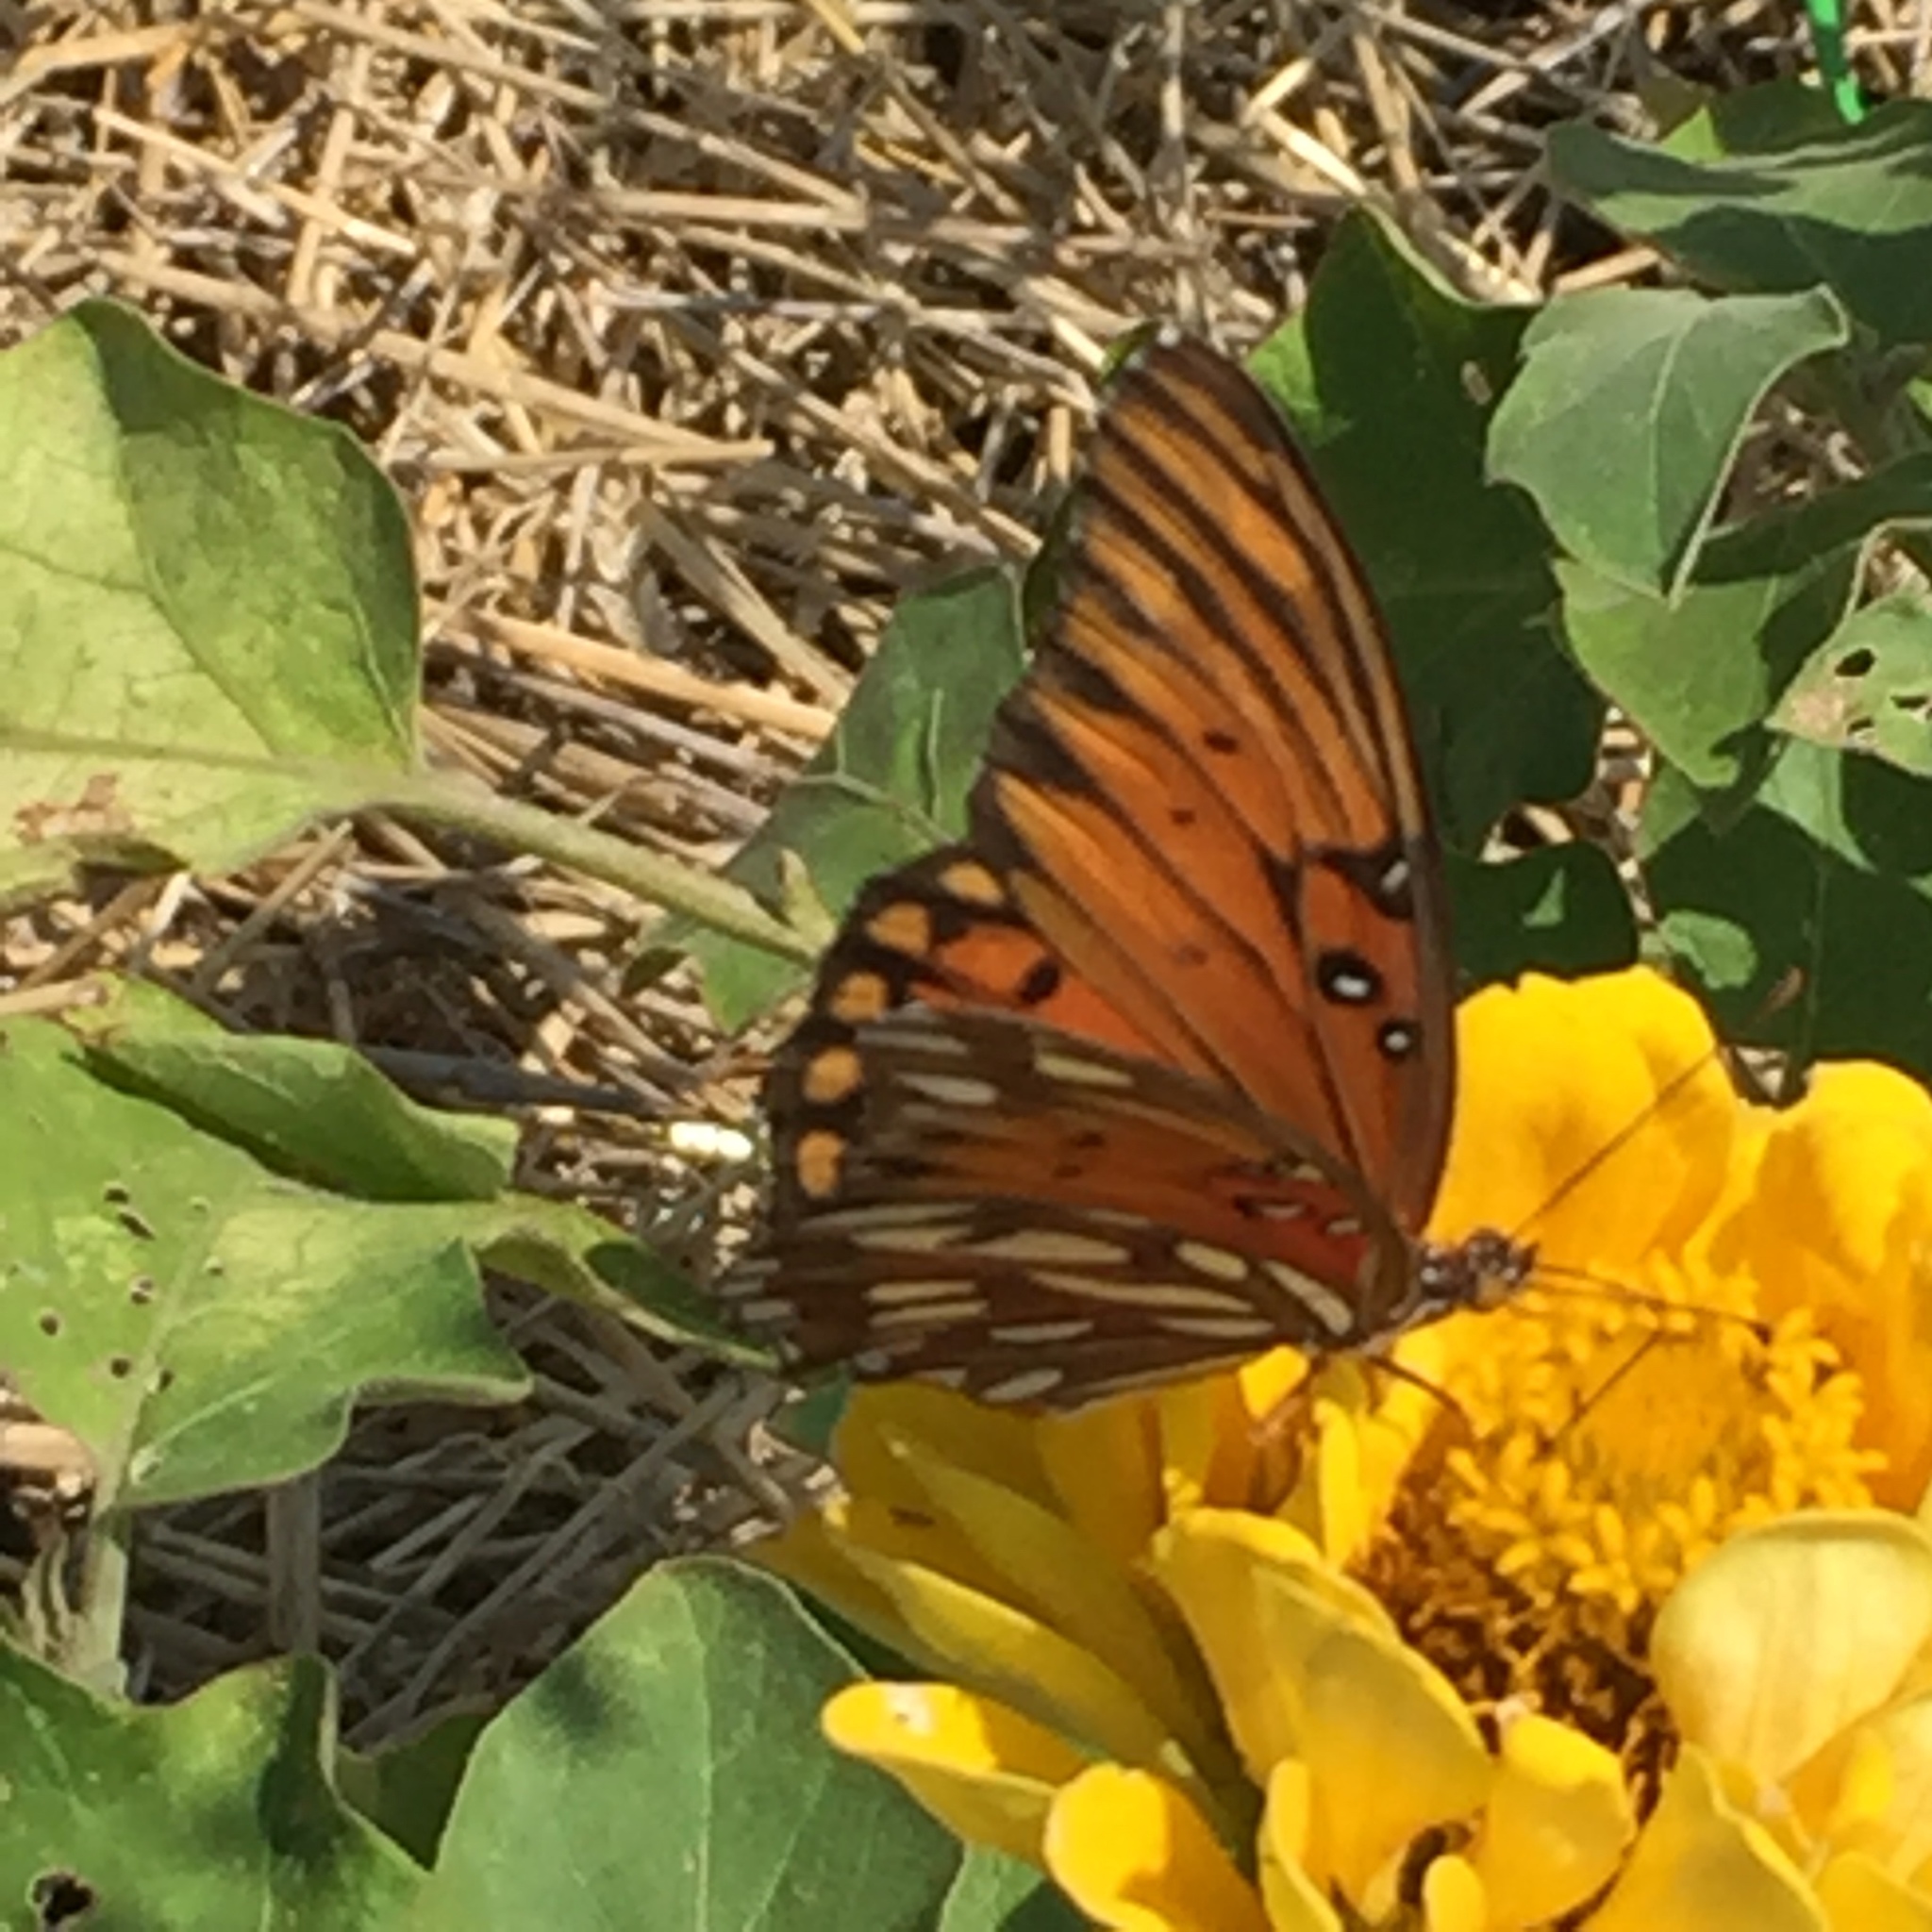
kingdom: Animalia
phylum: Arthropoda
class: Insecta
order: Lepidoptera
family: Nymphalidae
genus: Dione
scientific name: Dione vanillae
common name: Gulf fritillary
